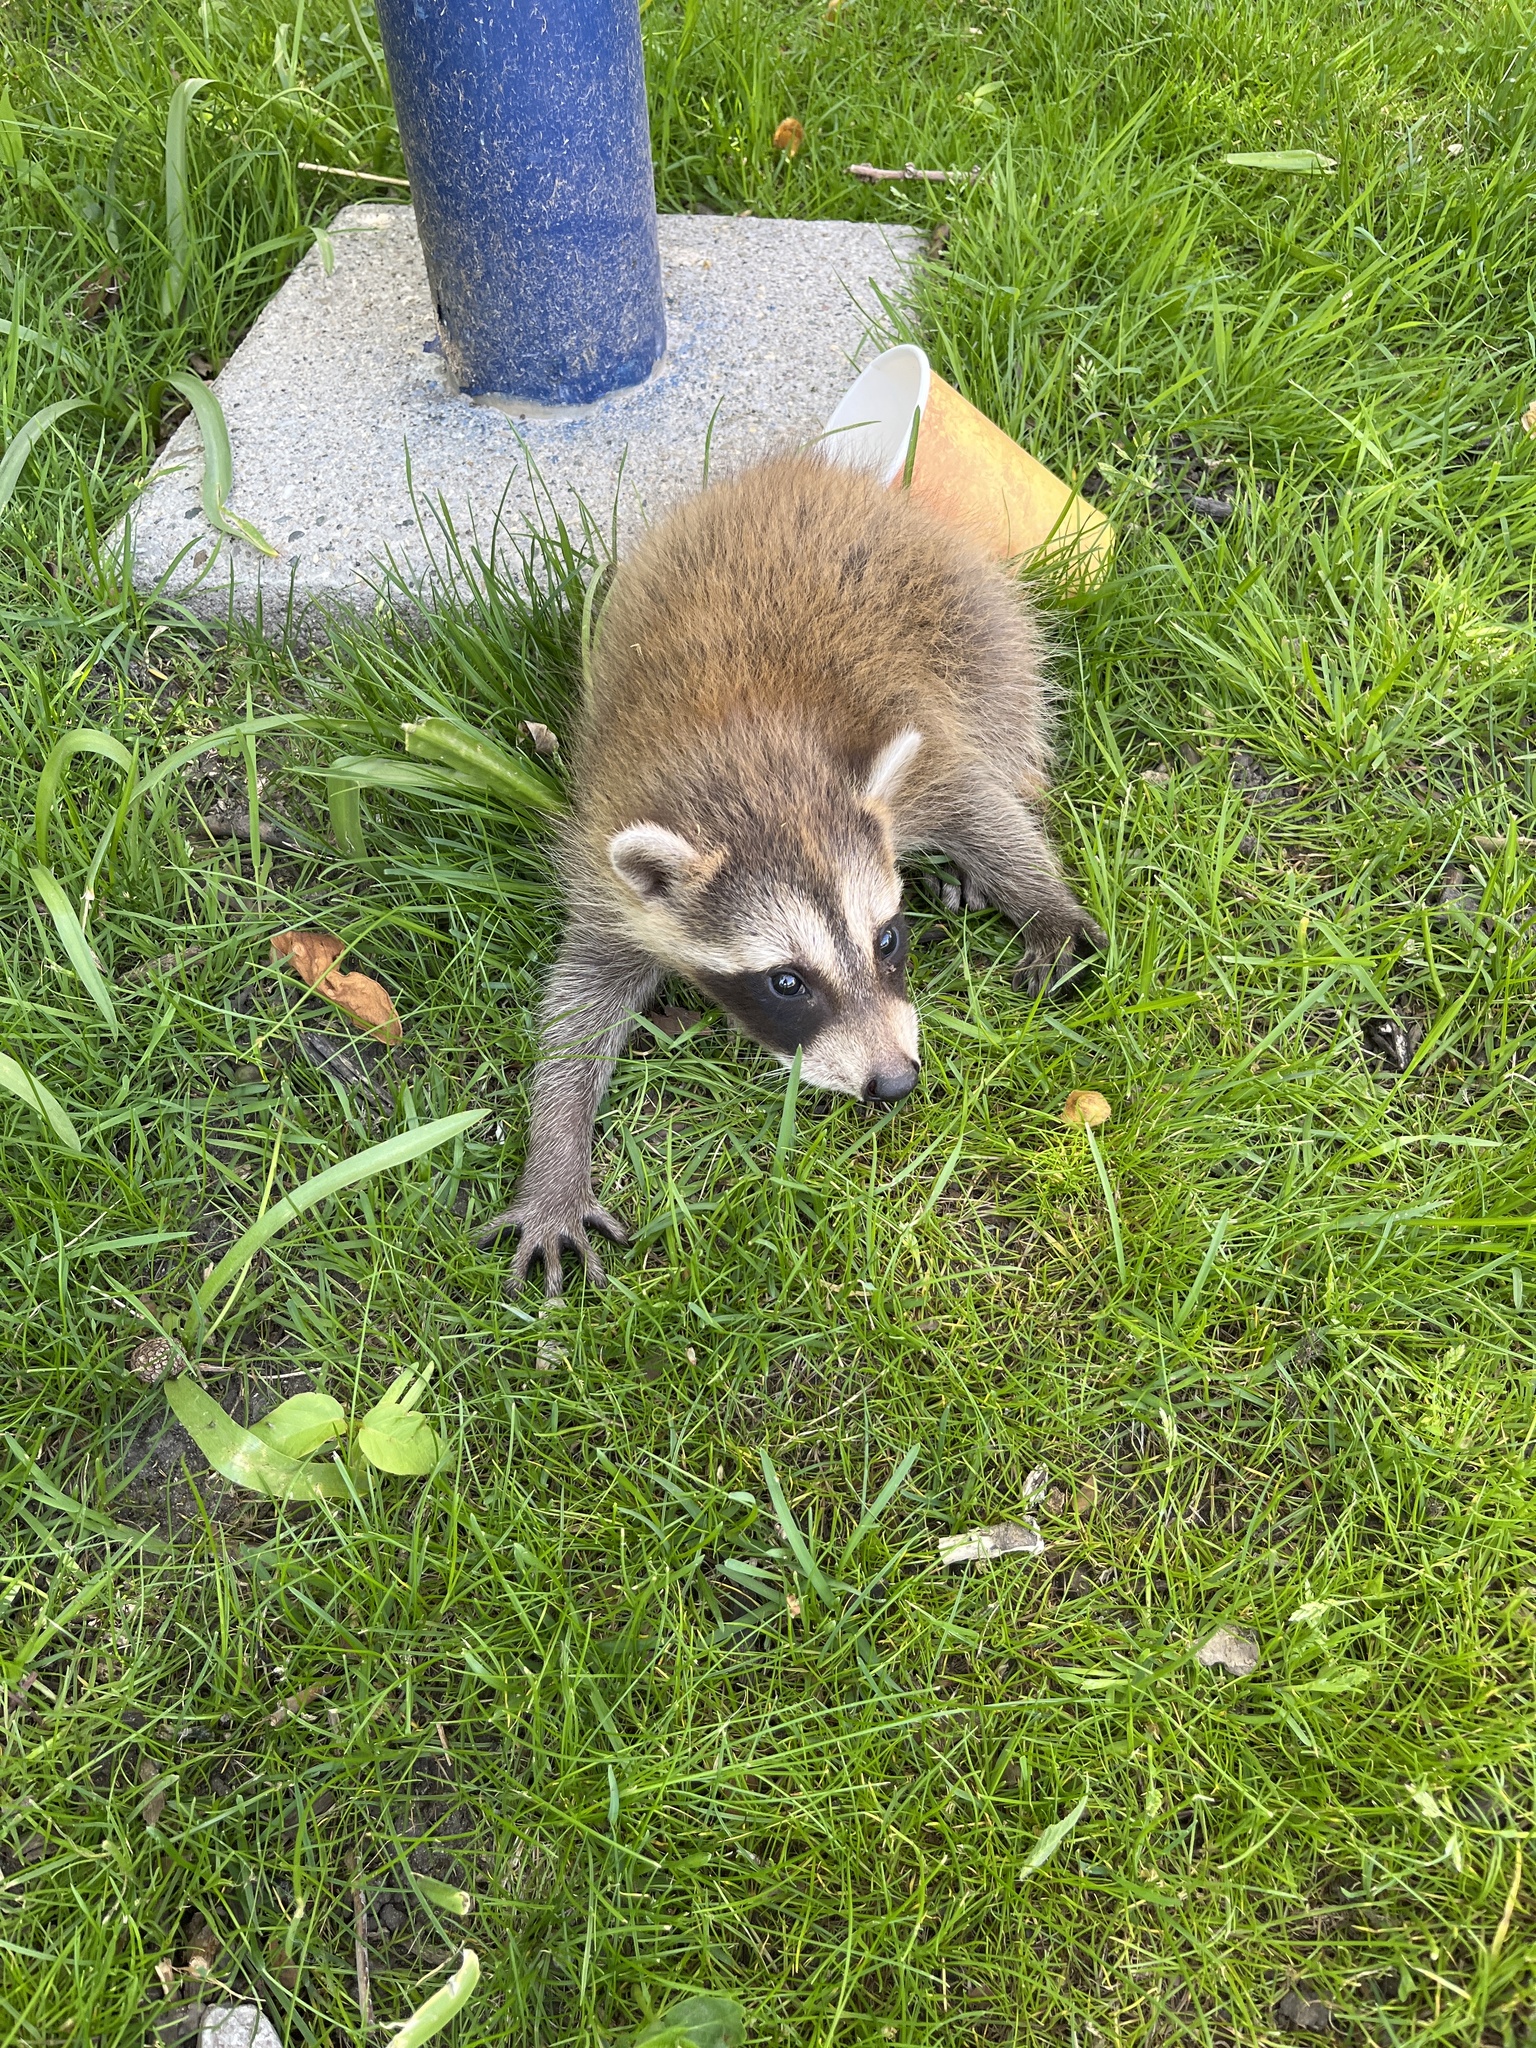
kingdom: Animalia
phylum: Chordata
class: Mammalia
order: Carnivora
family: Procyonidae
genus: Procyon
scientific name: Procyon lotor
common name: Raccoon
